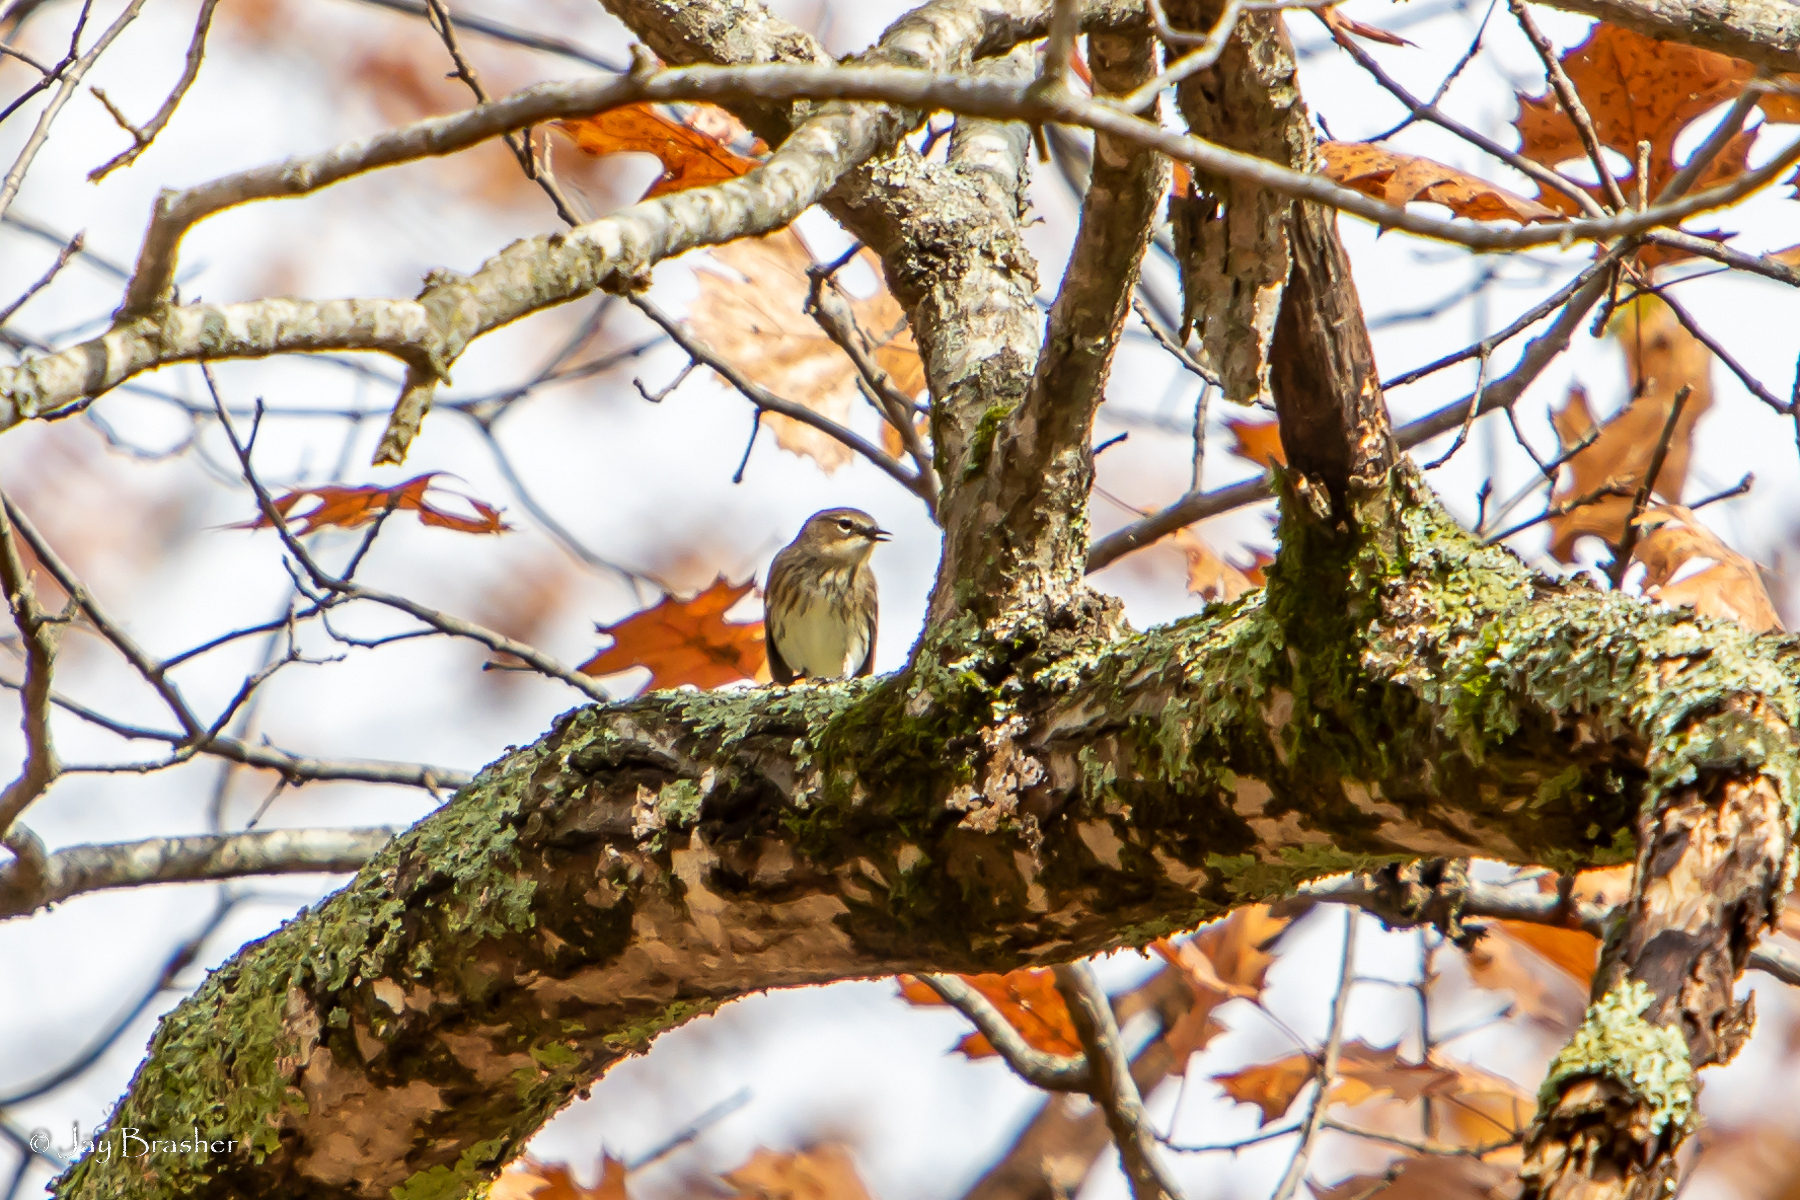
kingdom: Animalia
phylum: Chordata
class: Aves
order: Passeriformes
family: Parulidae
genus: Setophaga
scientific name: Setophaga coronata
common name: Myrtle warbler
